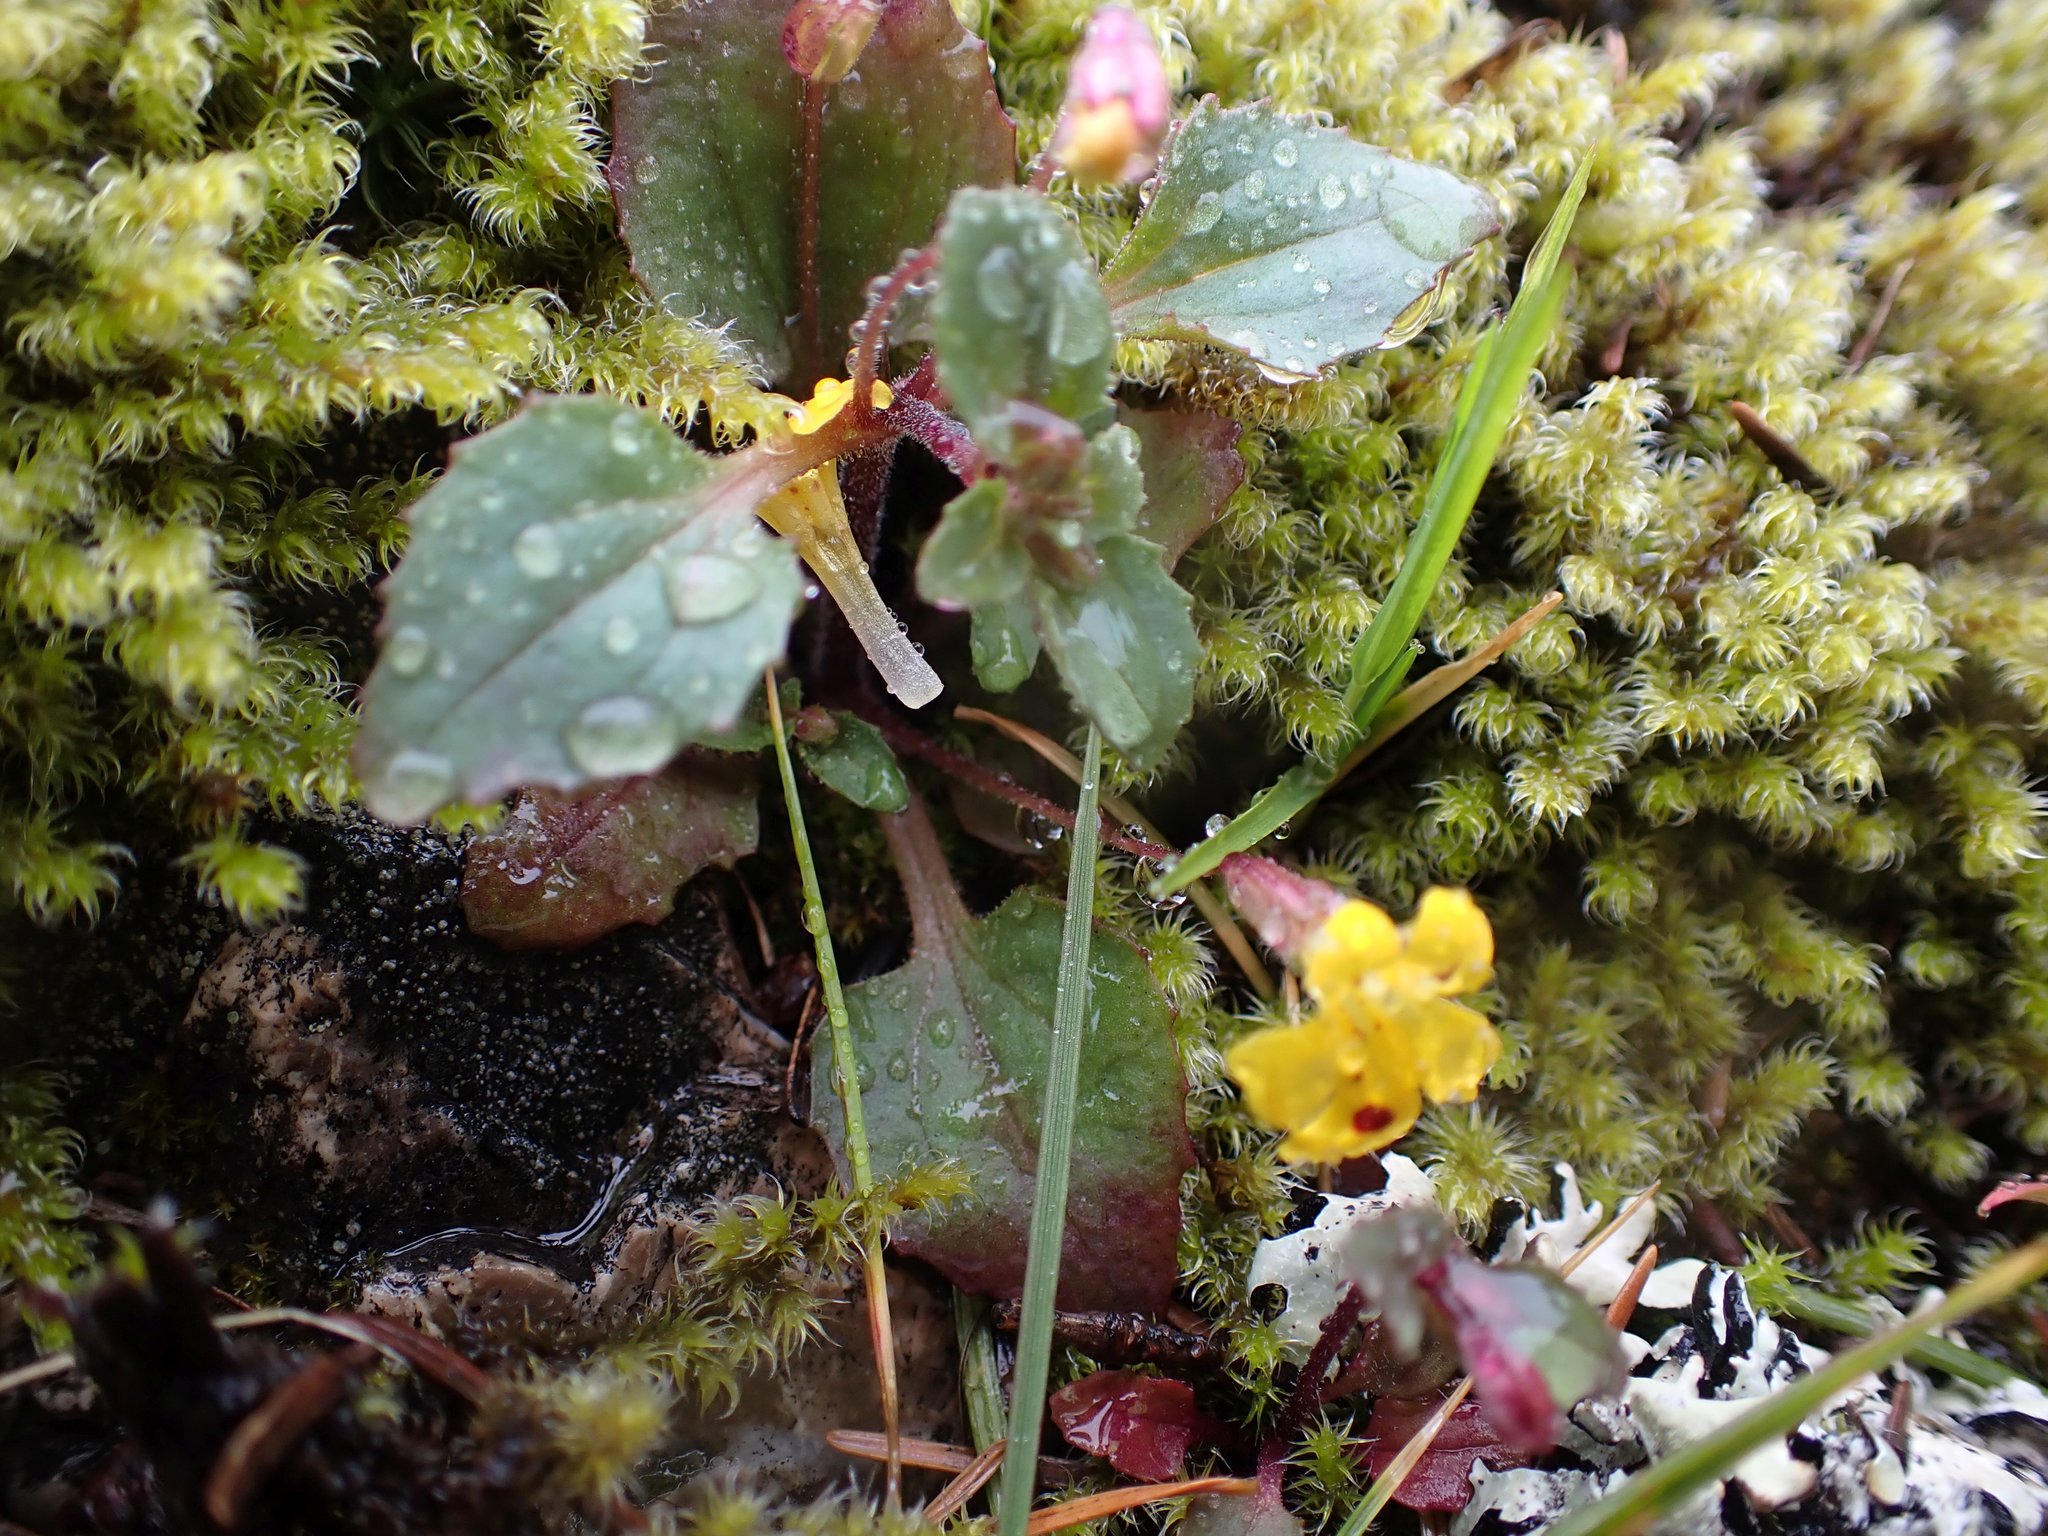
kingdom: Plantae
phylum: Tracheophyta
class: Magnoliopsida
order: Lamiales
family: Phrymaceae
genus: Erythranthe
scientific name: Erythranthe alsinoides
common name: Chickweed monkeyflower
